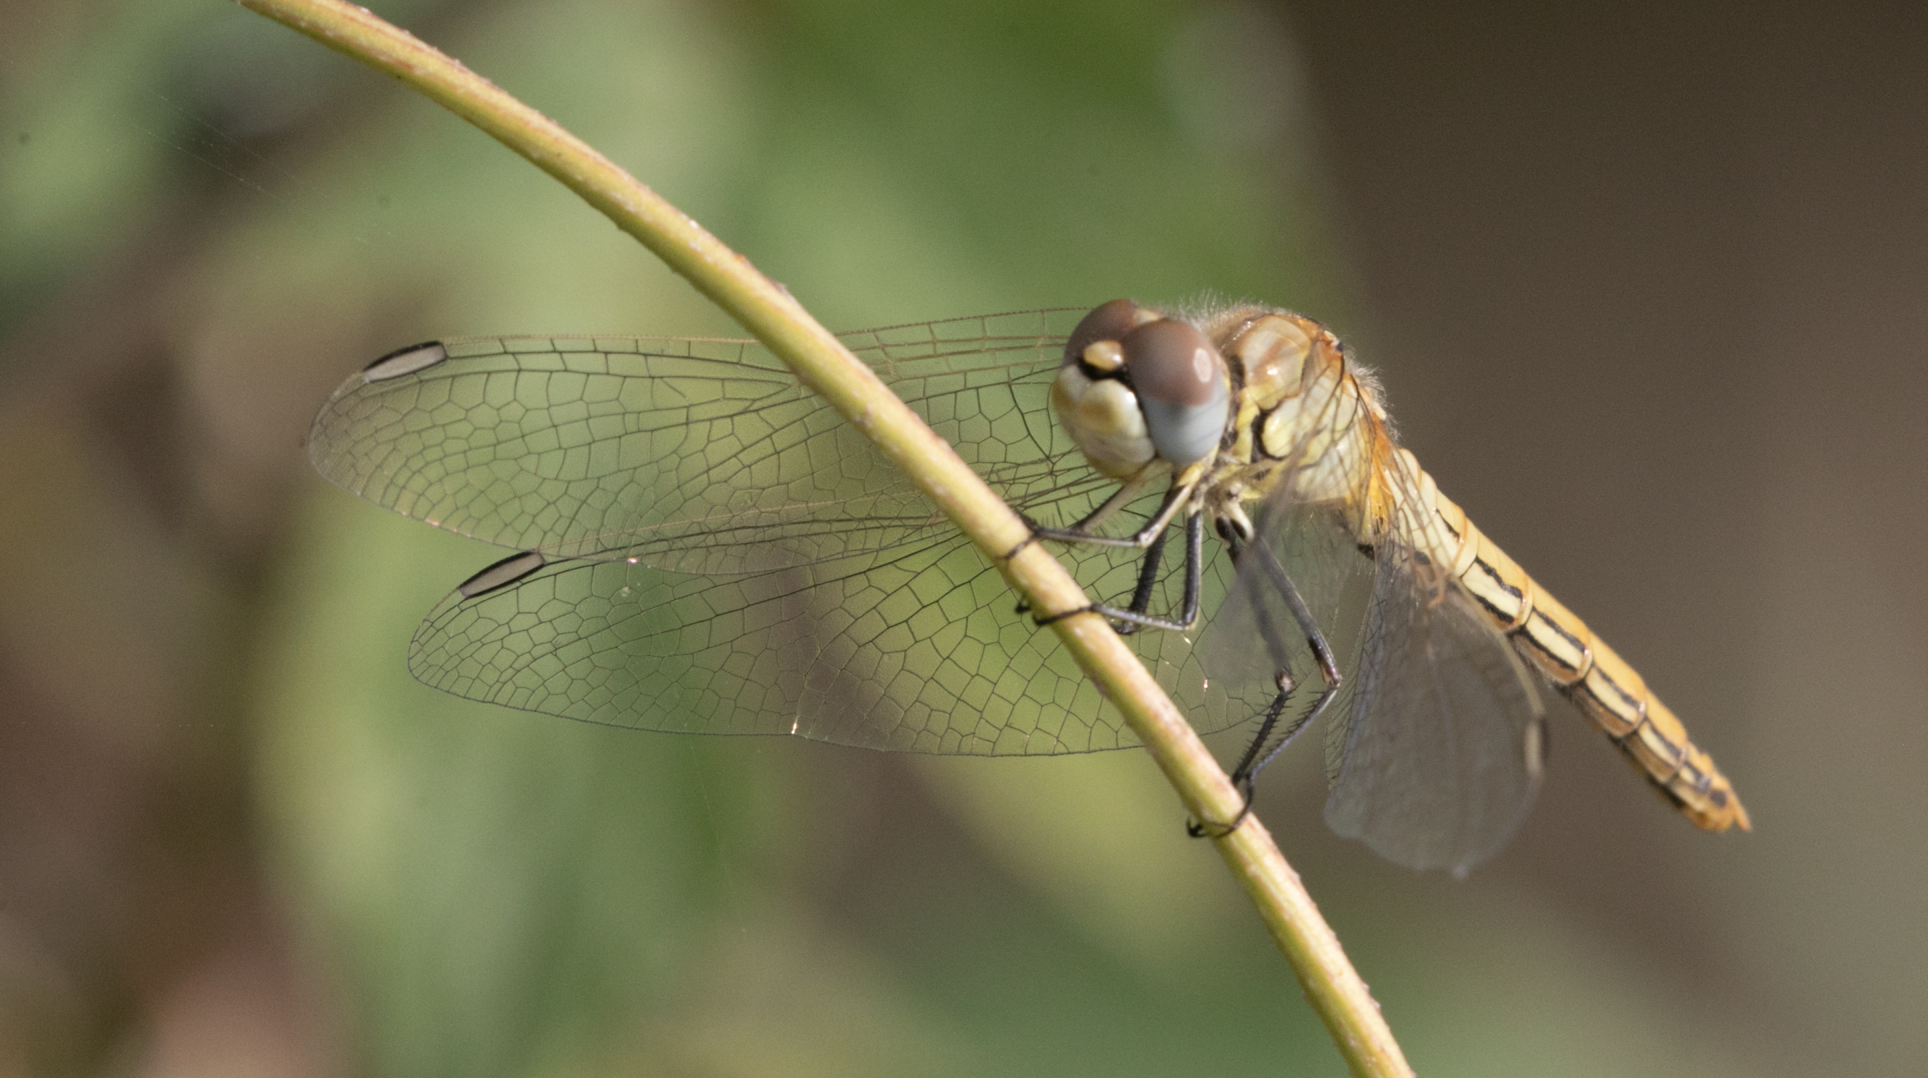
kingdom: Animalia
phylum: Arthropoda
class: Insecta
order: Odonata
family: Libellulidae
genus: Sympetrum
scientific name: Sympetrum fonscolombii
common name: Red-veined darter
